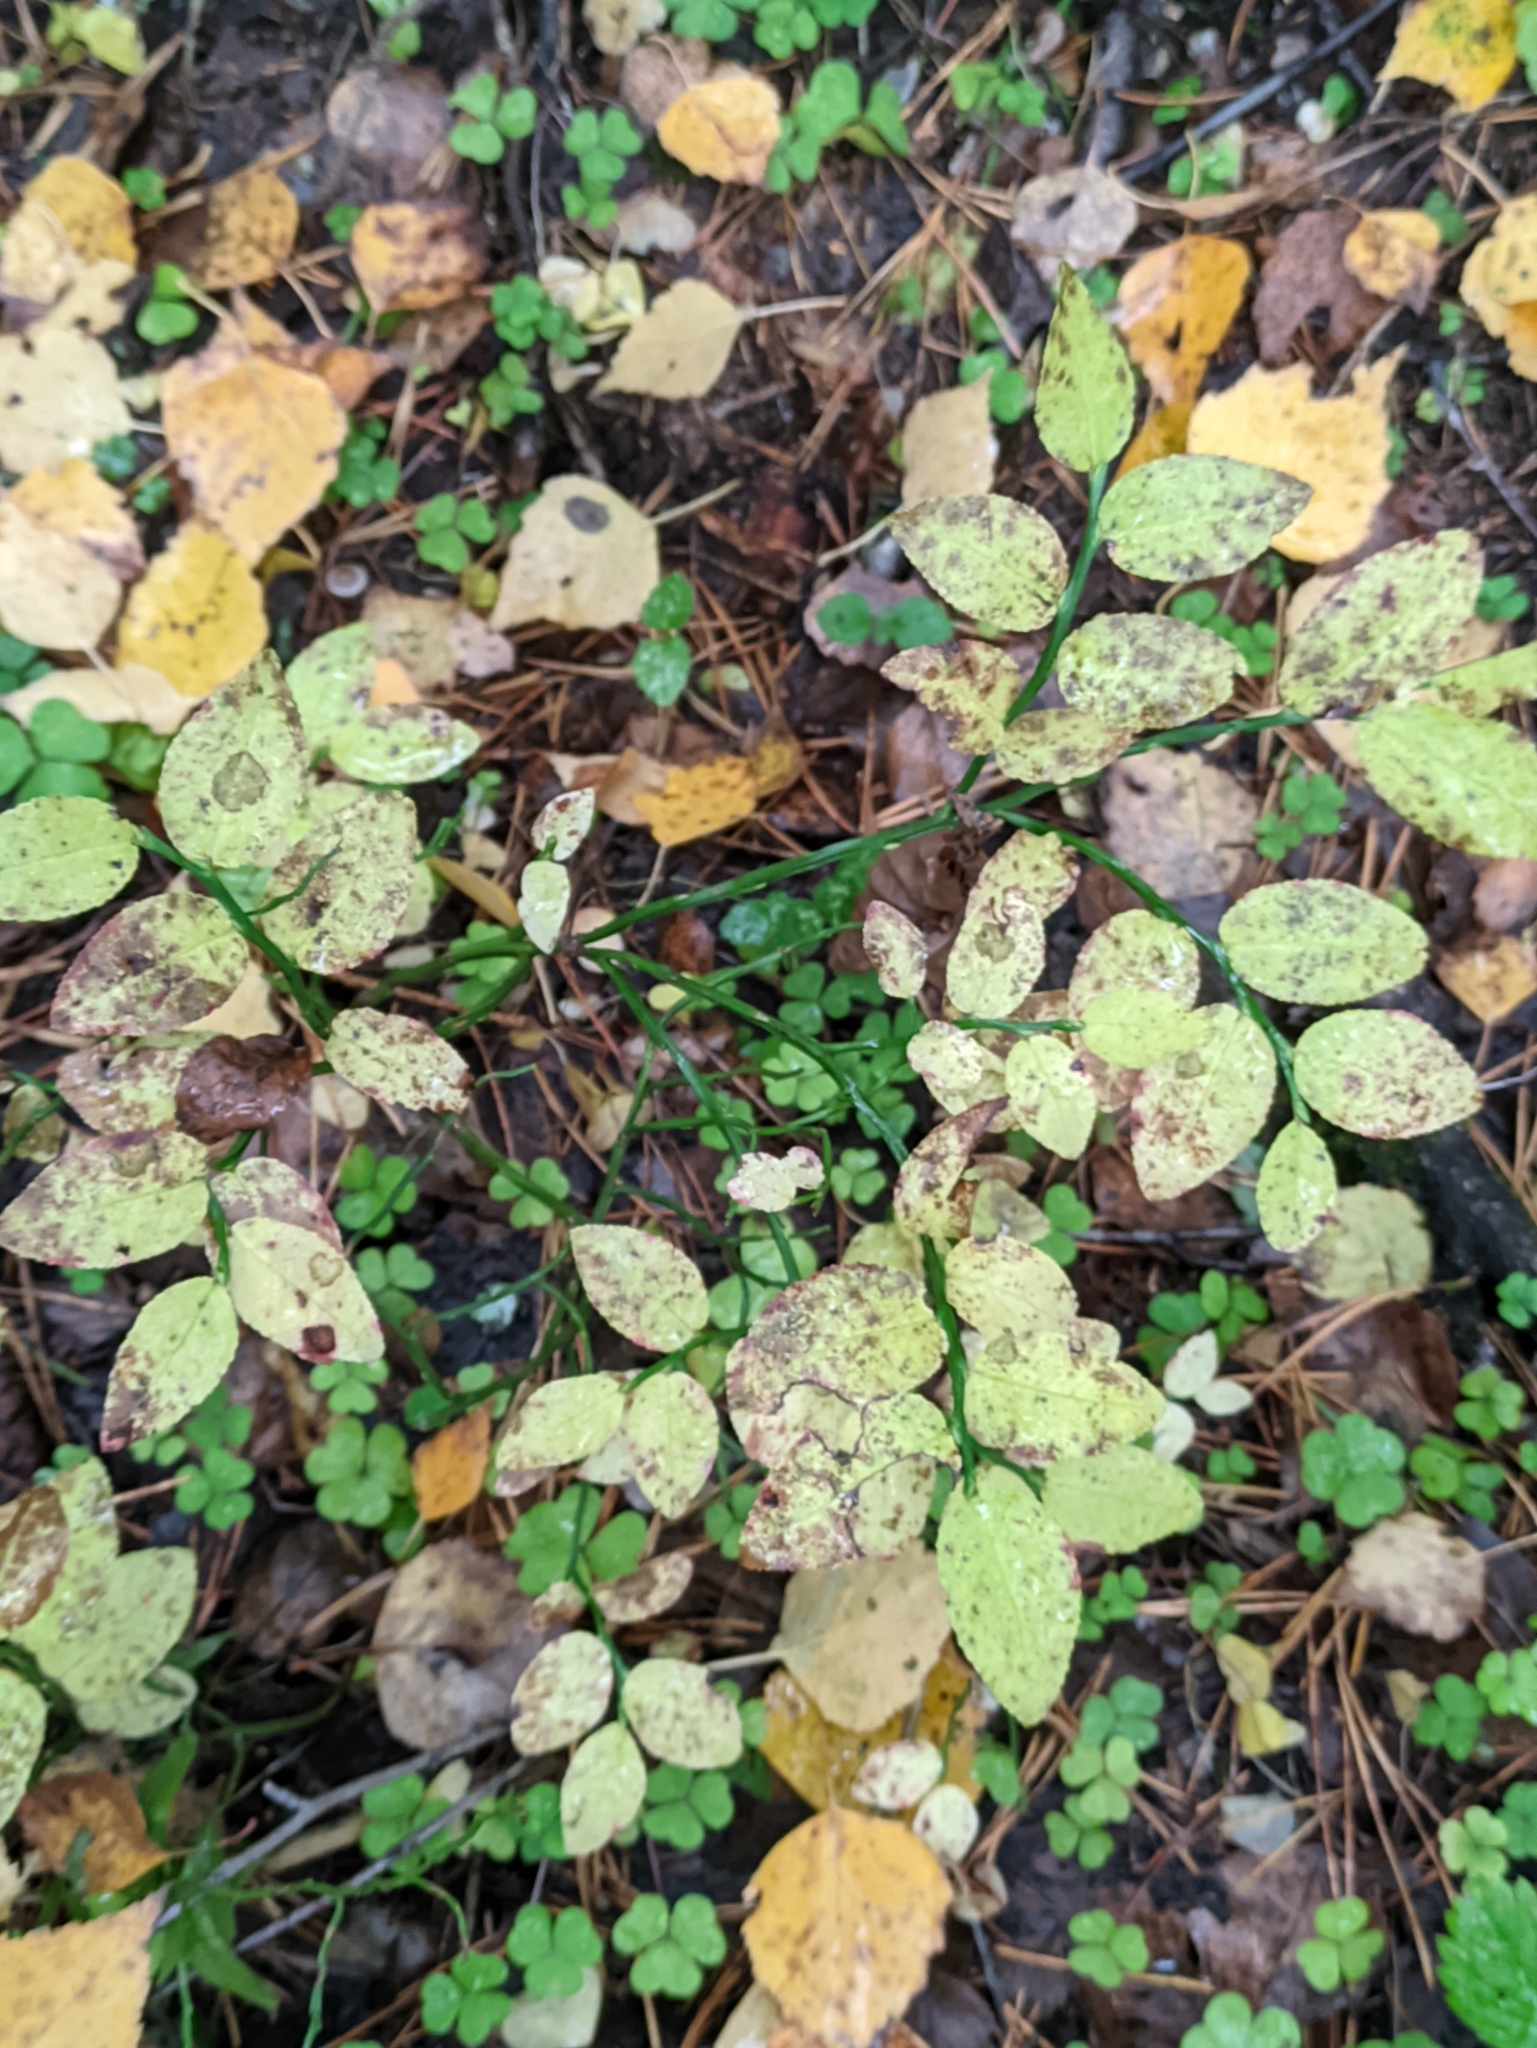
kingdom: Plantae
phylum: Tracheophyta
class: Magnoliopsida
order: Ericales
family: Ericaceae
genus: Vaccinium
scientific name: Vaccinium myrtillus
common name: Bilberry
